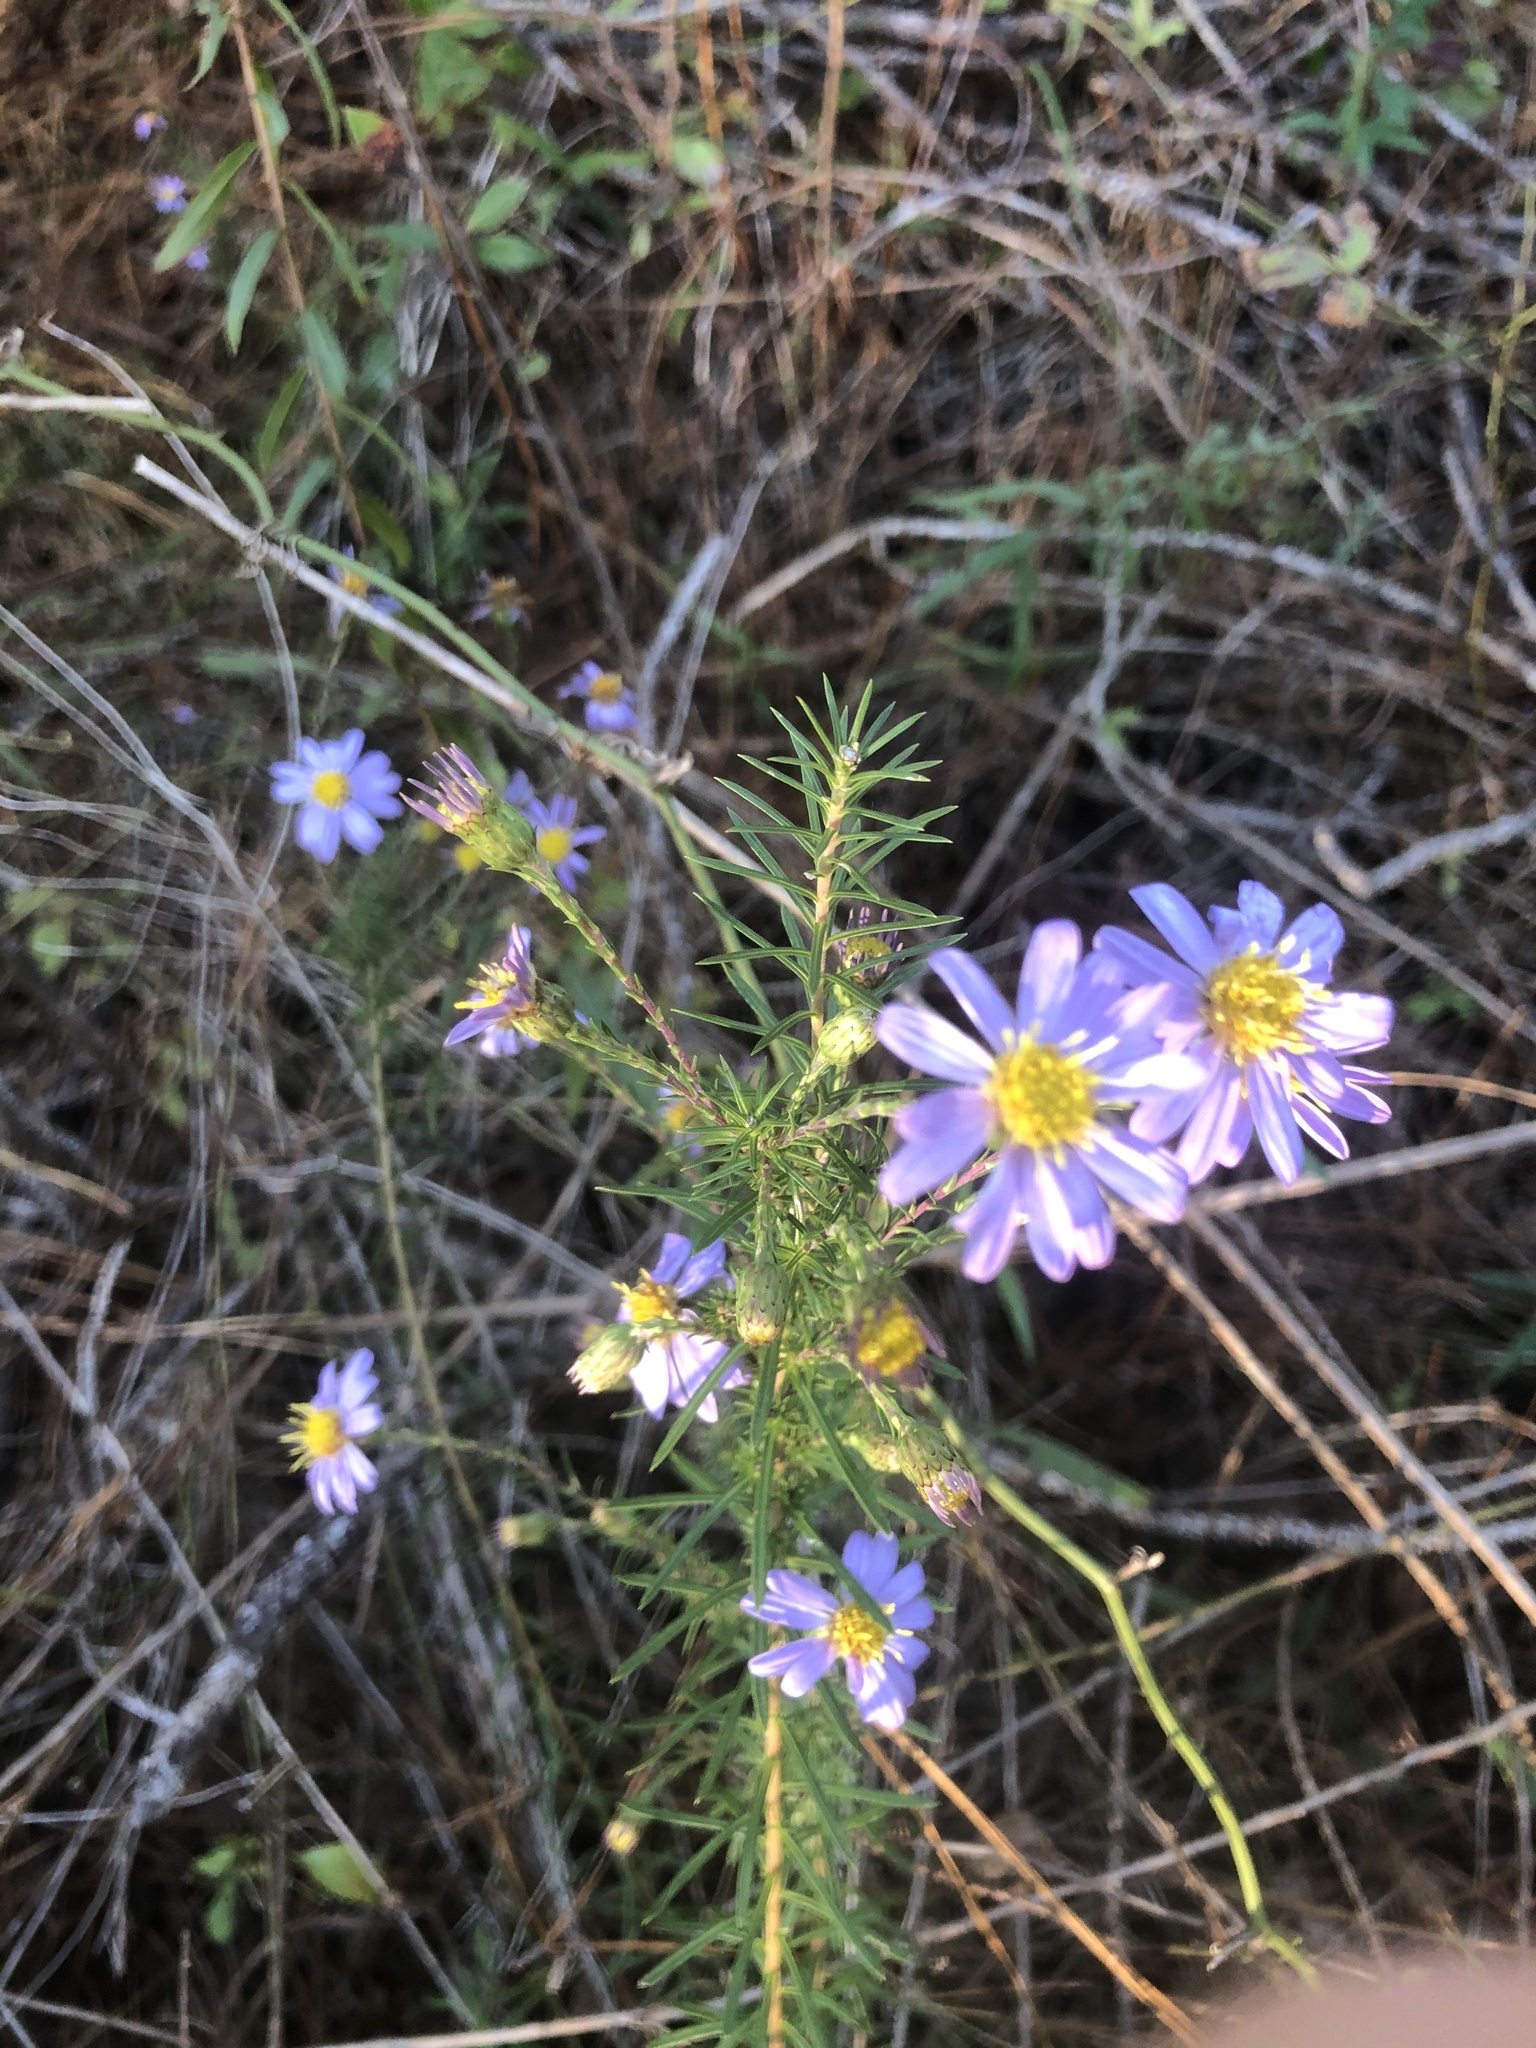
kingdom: Plantae
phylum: Tracheophyta
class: Magnoliopsida
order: Asterales
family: Asteraceae
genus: Ionactis
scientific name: Ionactis repens
